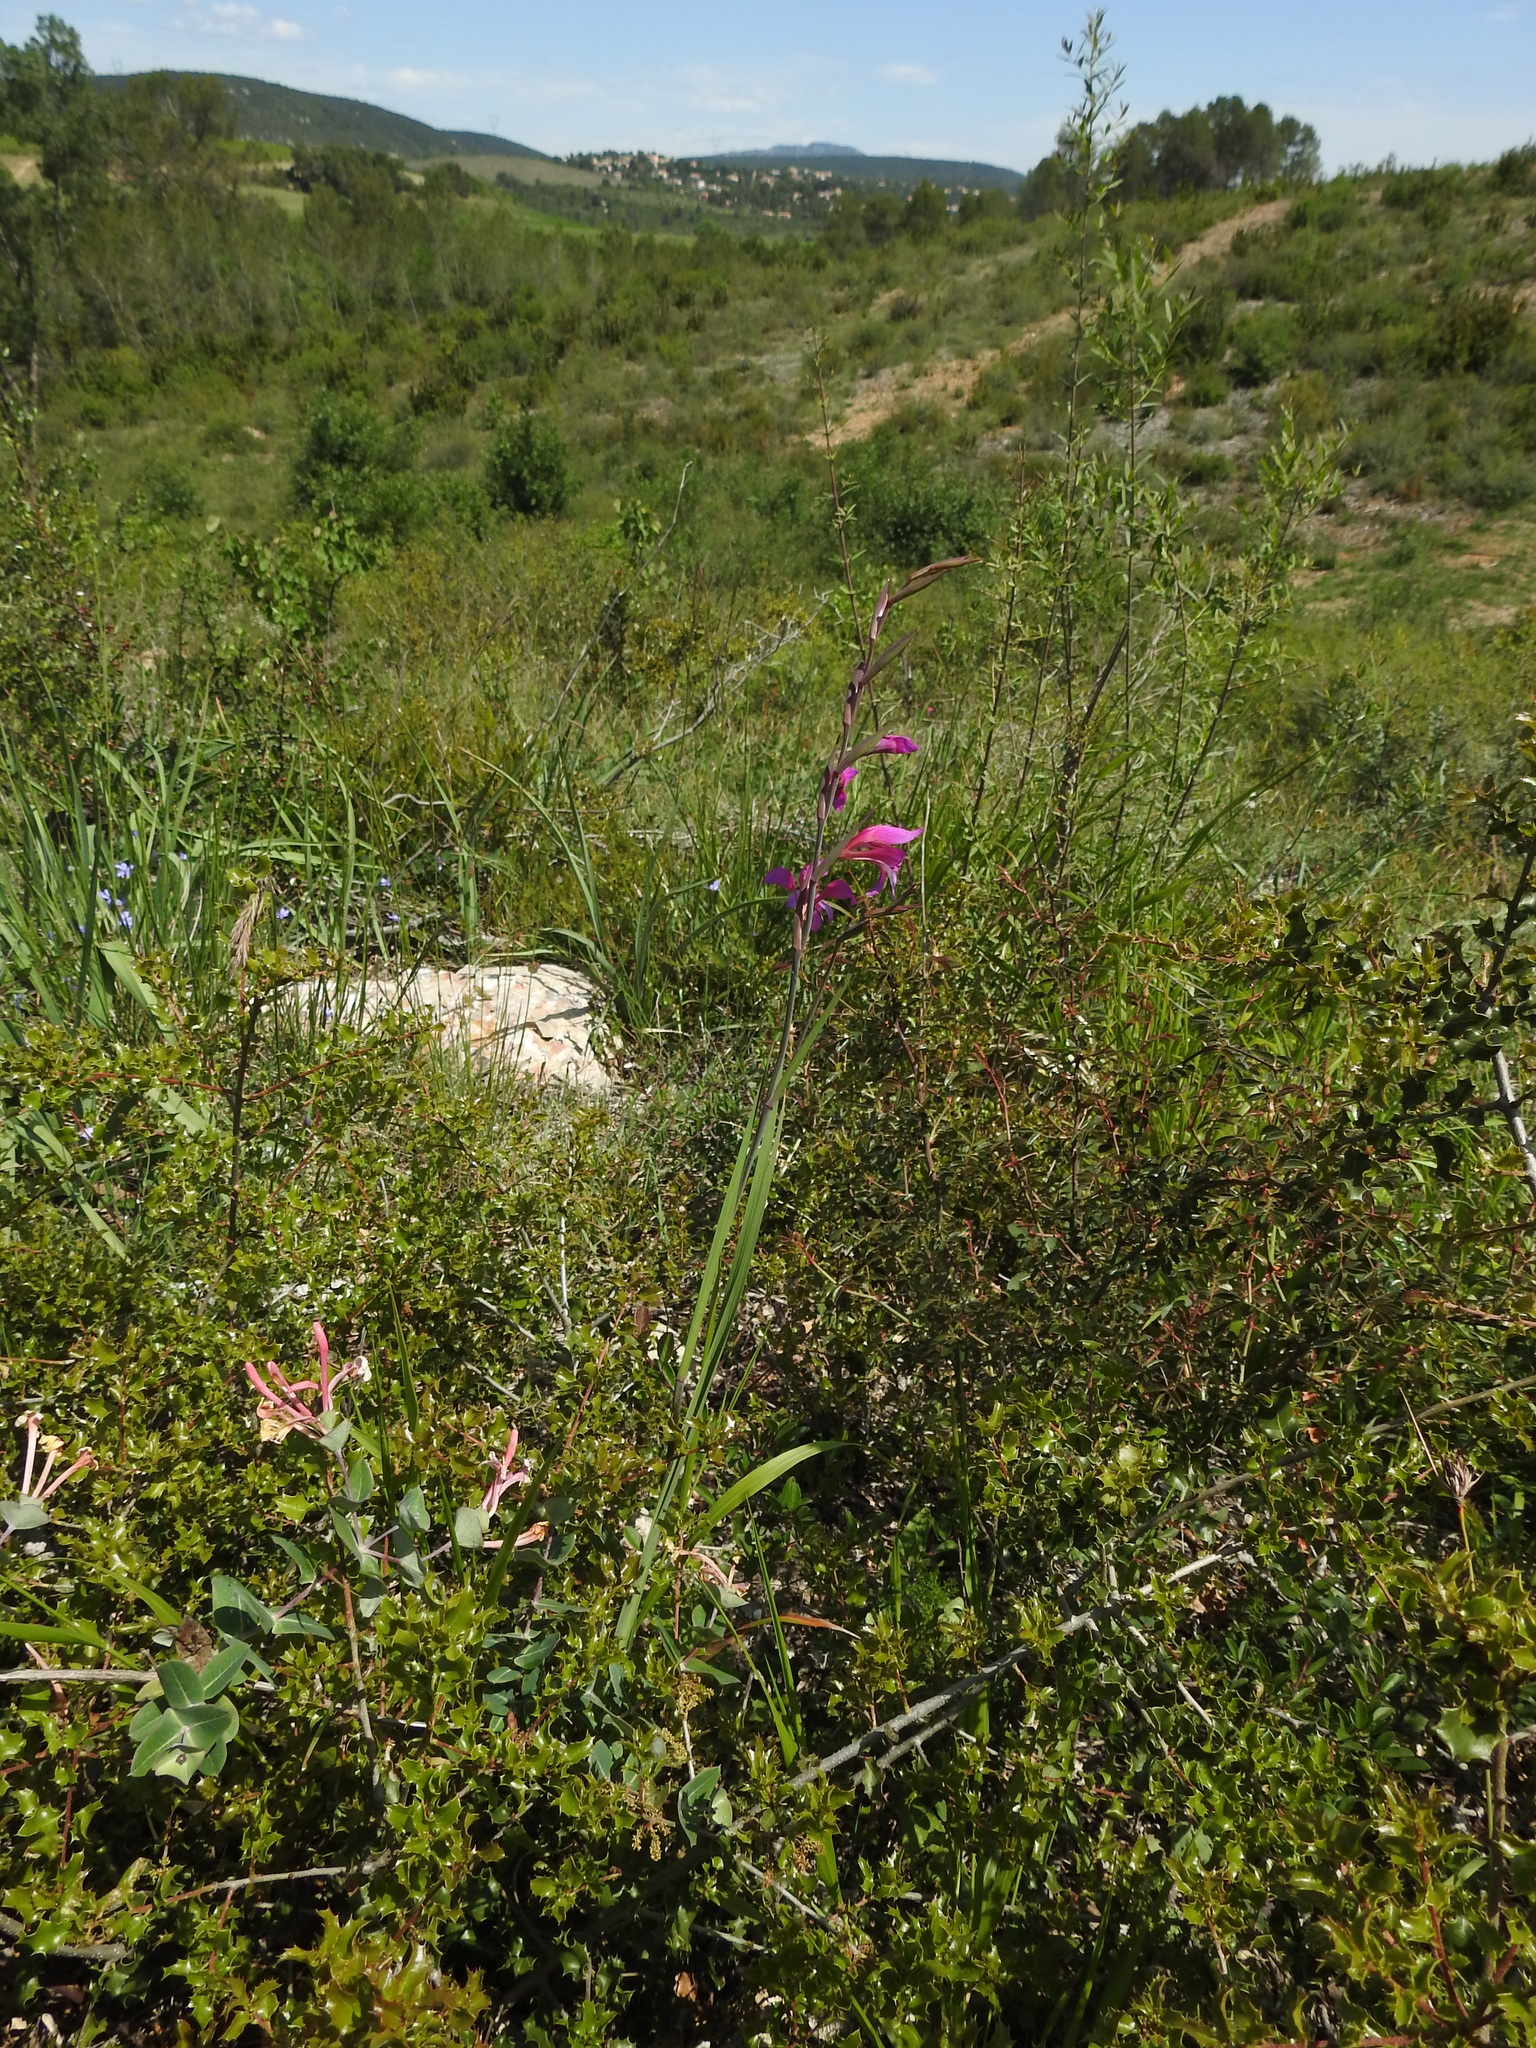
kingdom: Plantae
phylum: Tracheophyta
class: Liliopsida
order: Asparagales
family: Iridaceae
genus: Gladiolus
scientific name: Gladiolus dubius
